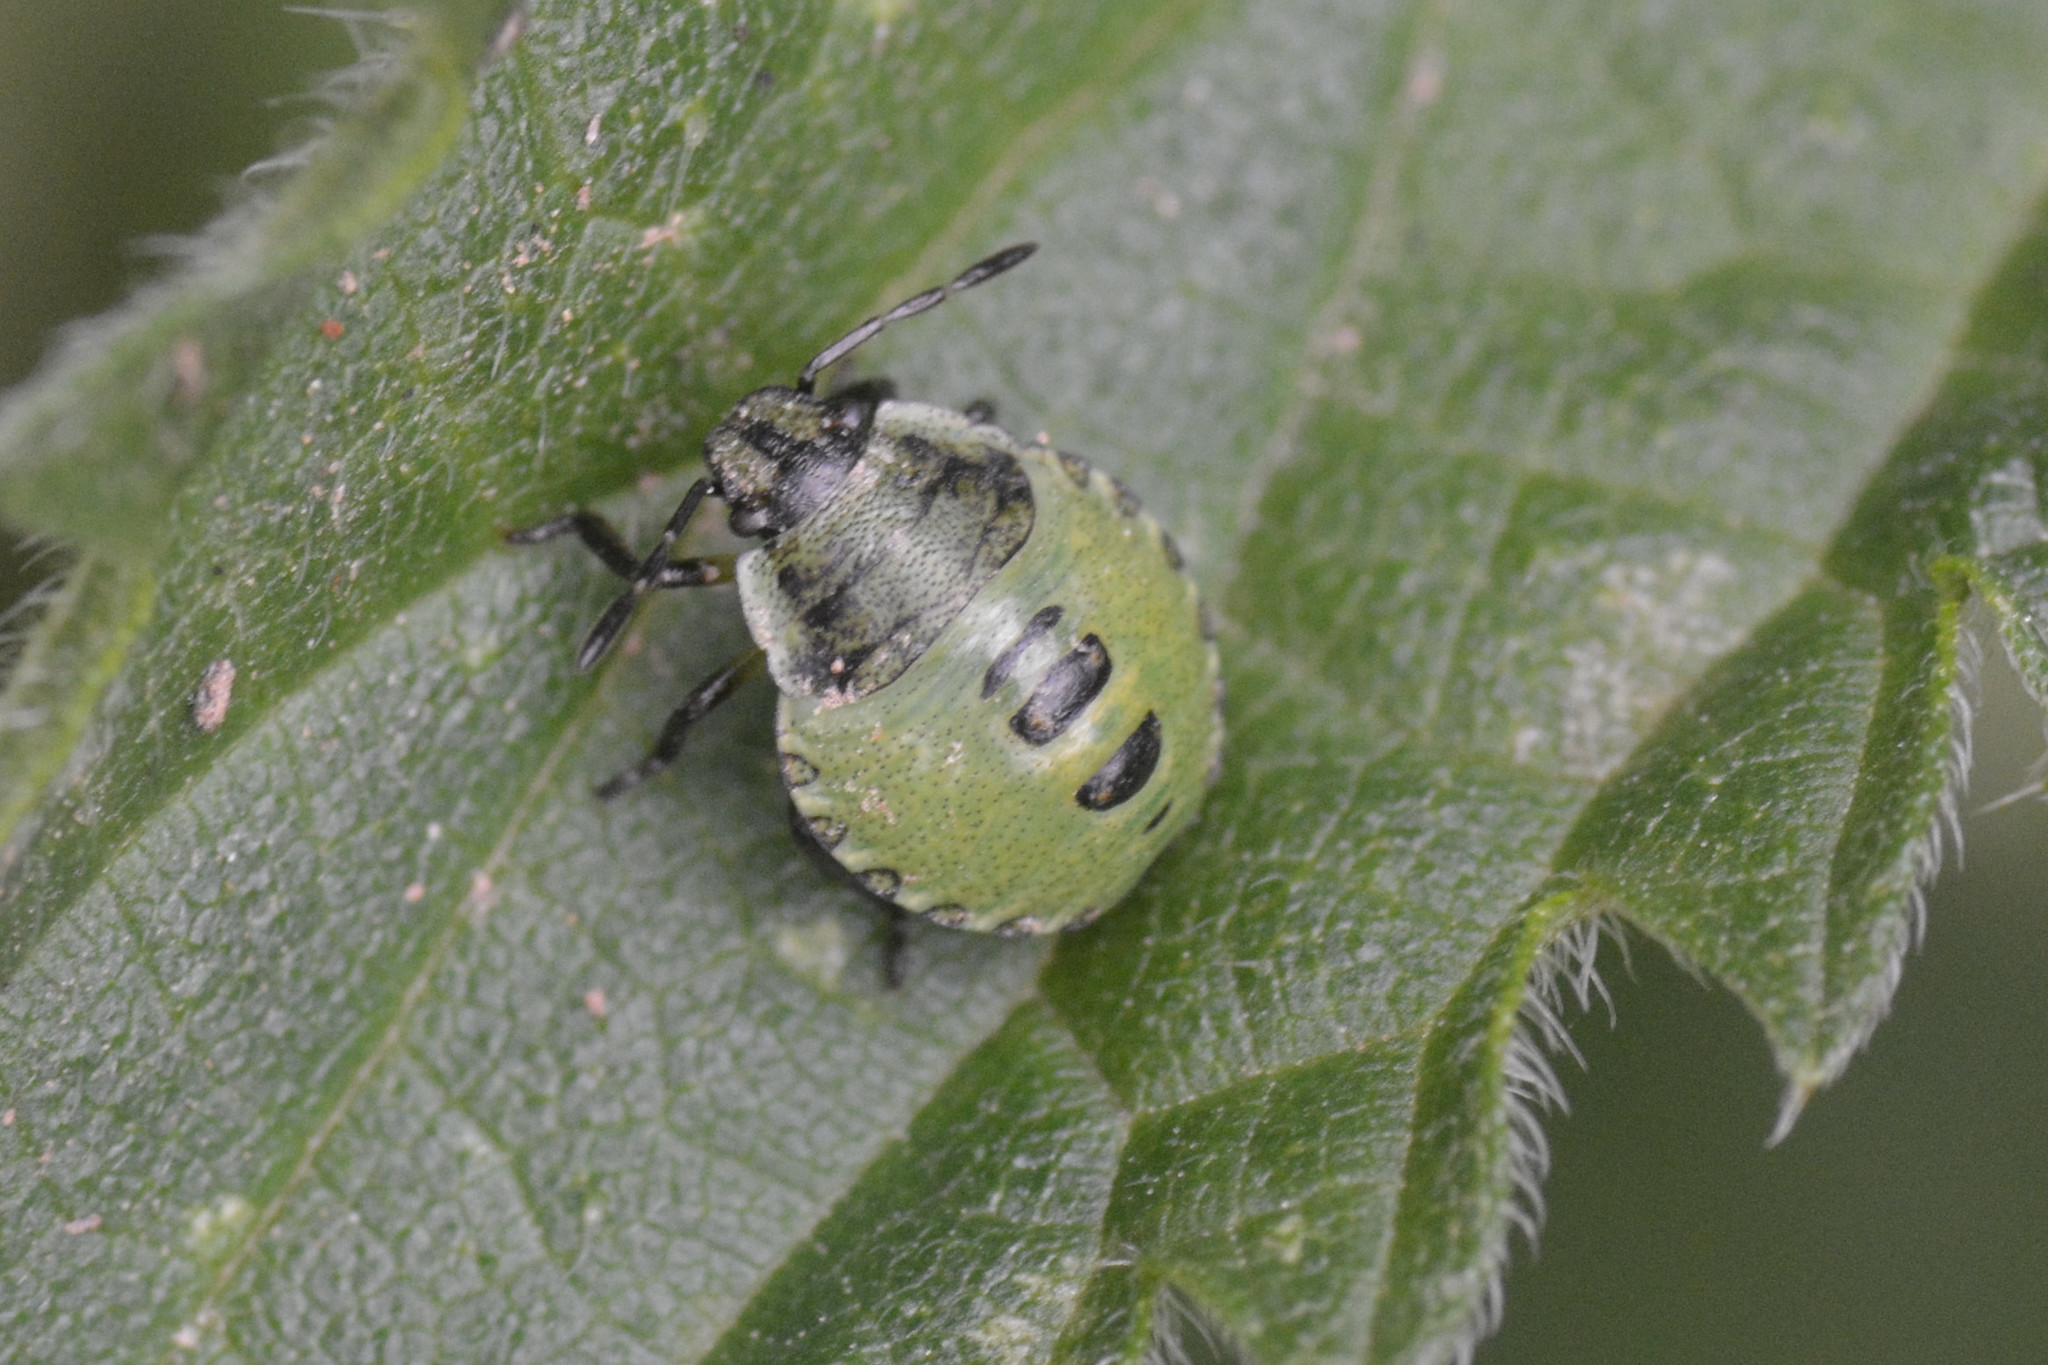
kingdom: Animalia
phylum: Arthropoda
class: Insecta
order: Hemiptera
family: Pentatomidae
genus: Palomena
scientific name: Palomena prasina
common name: Green shieldbug
